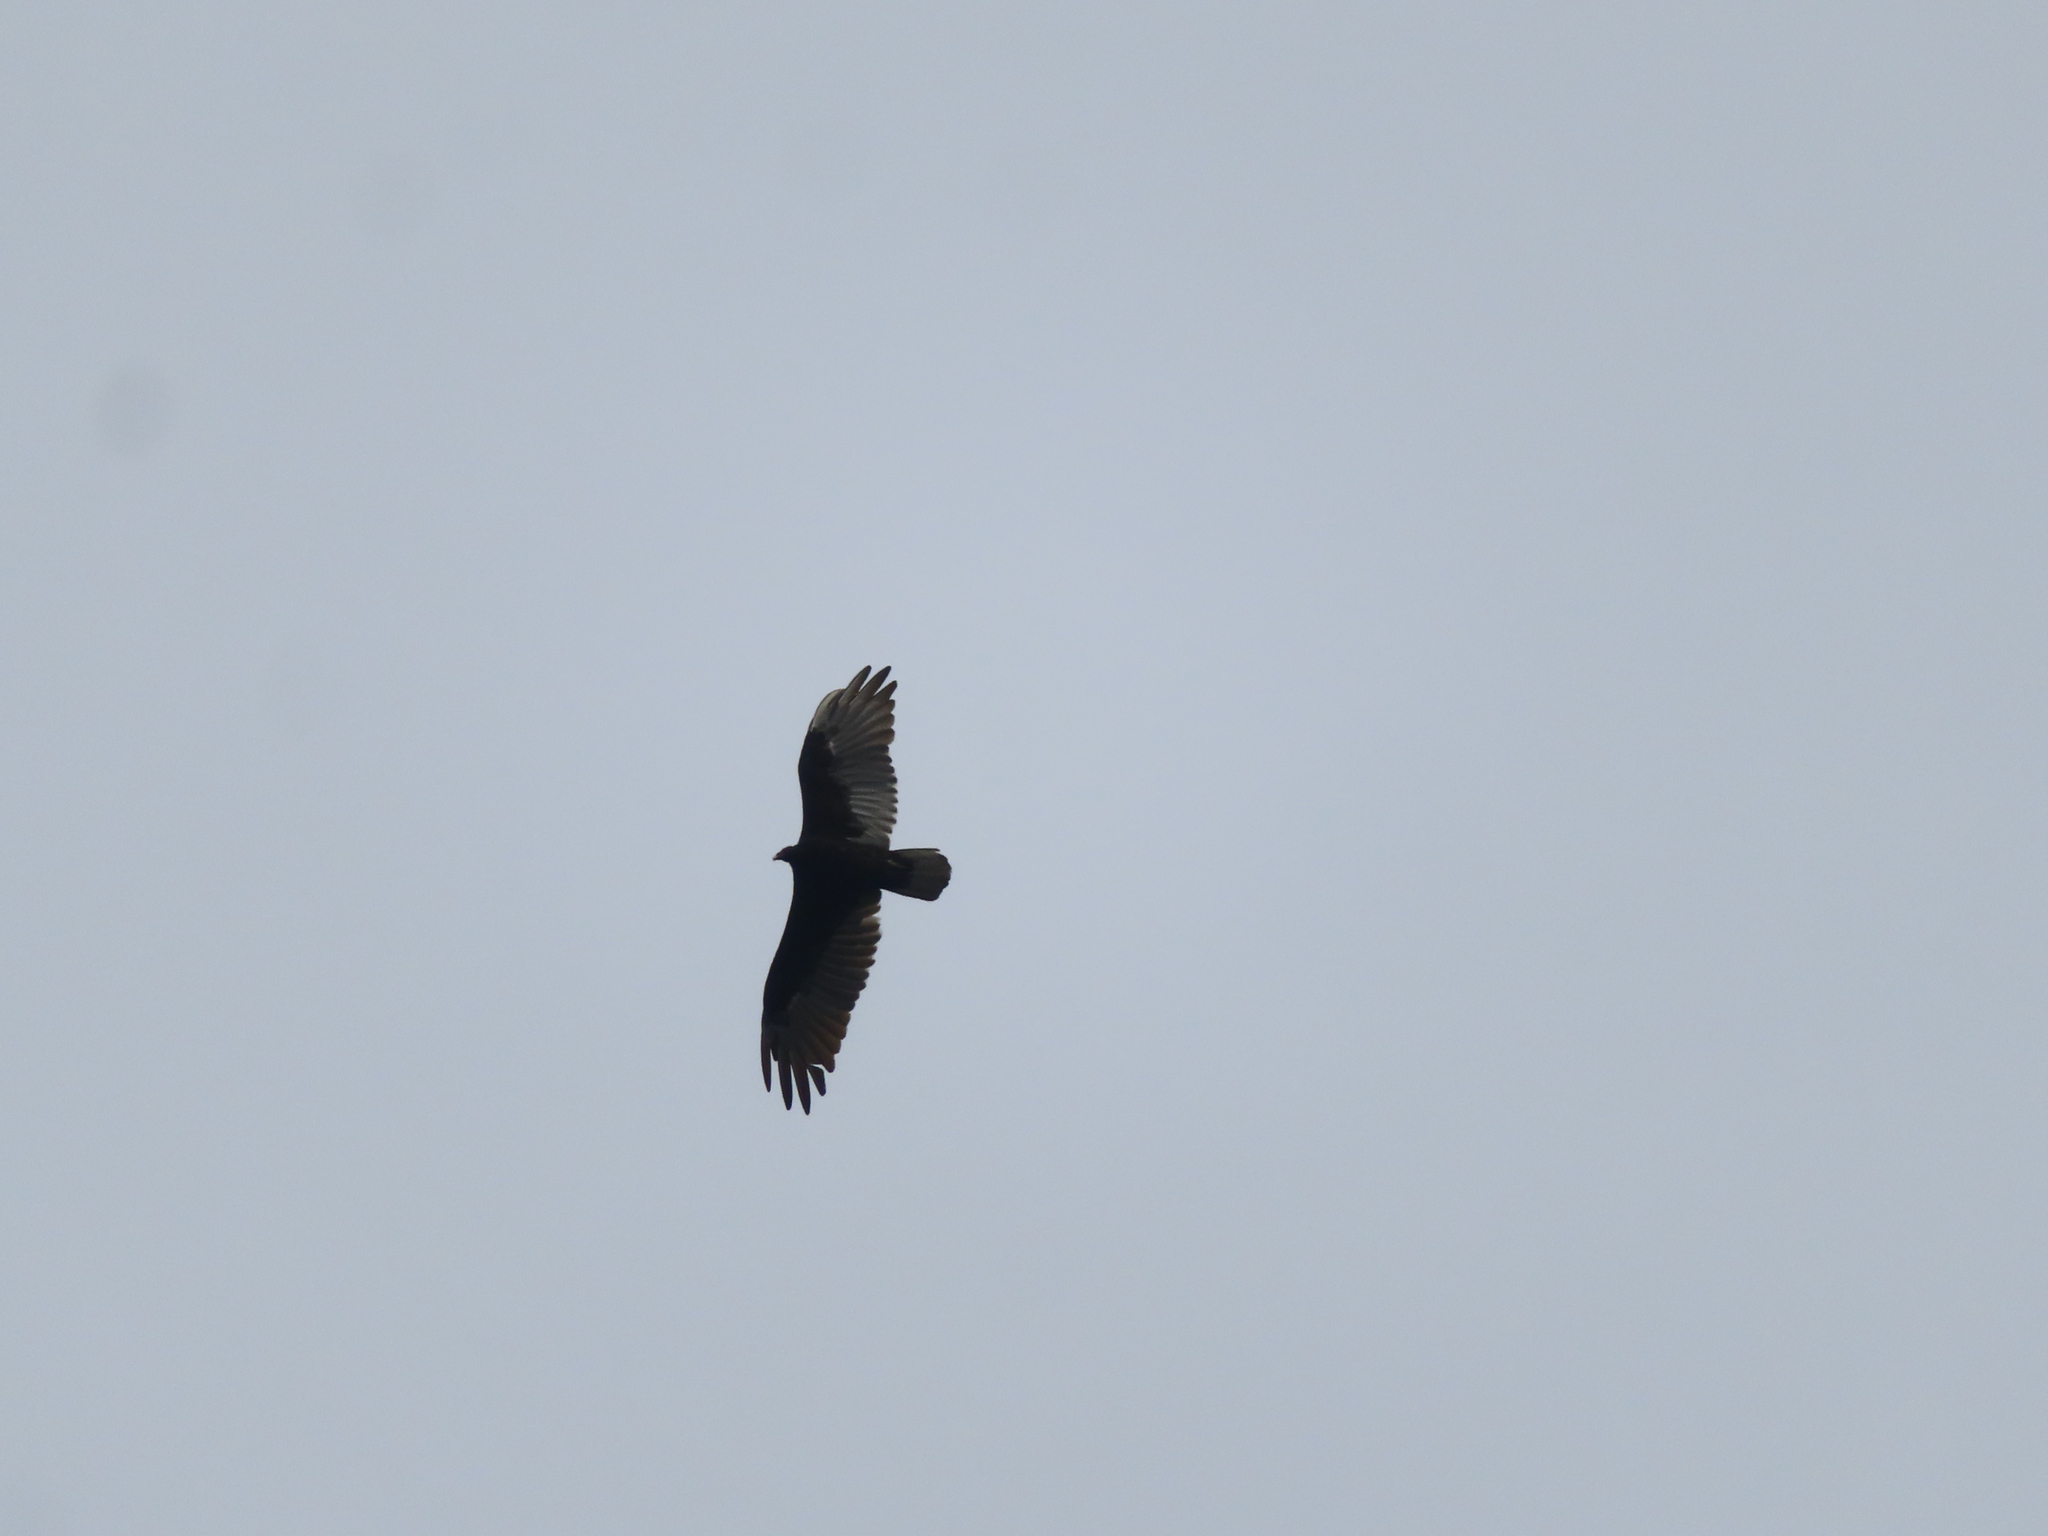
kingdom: Animalia
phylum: Chordata
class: Aves
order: Accipitriformes
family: Cathartidae
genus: Cathartes
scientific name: Cathartes aura
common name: Turkey vulture
